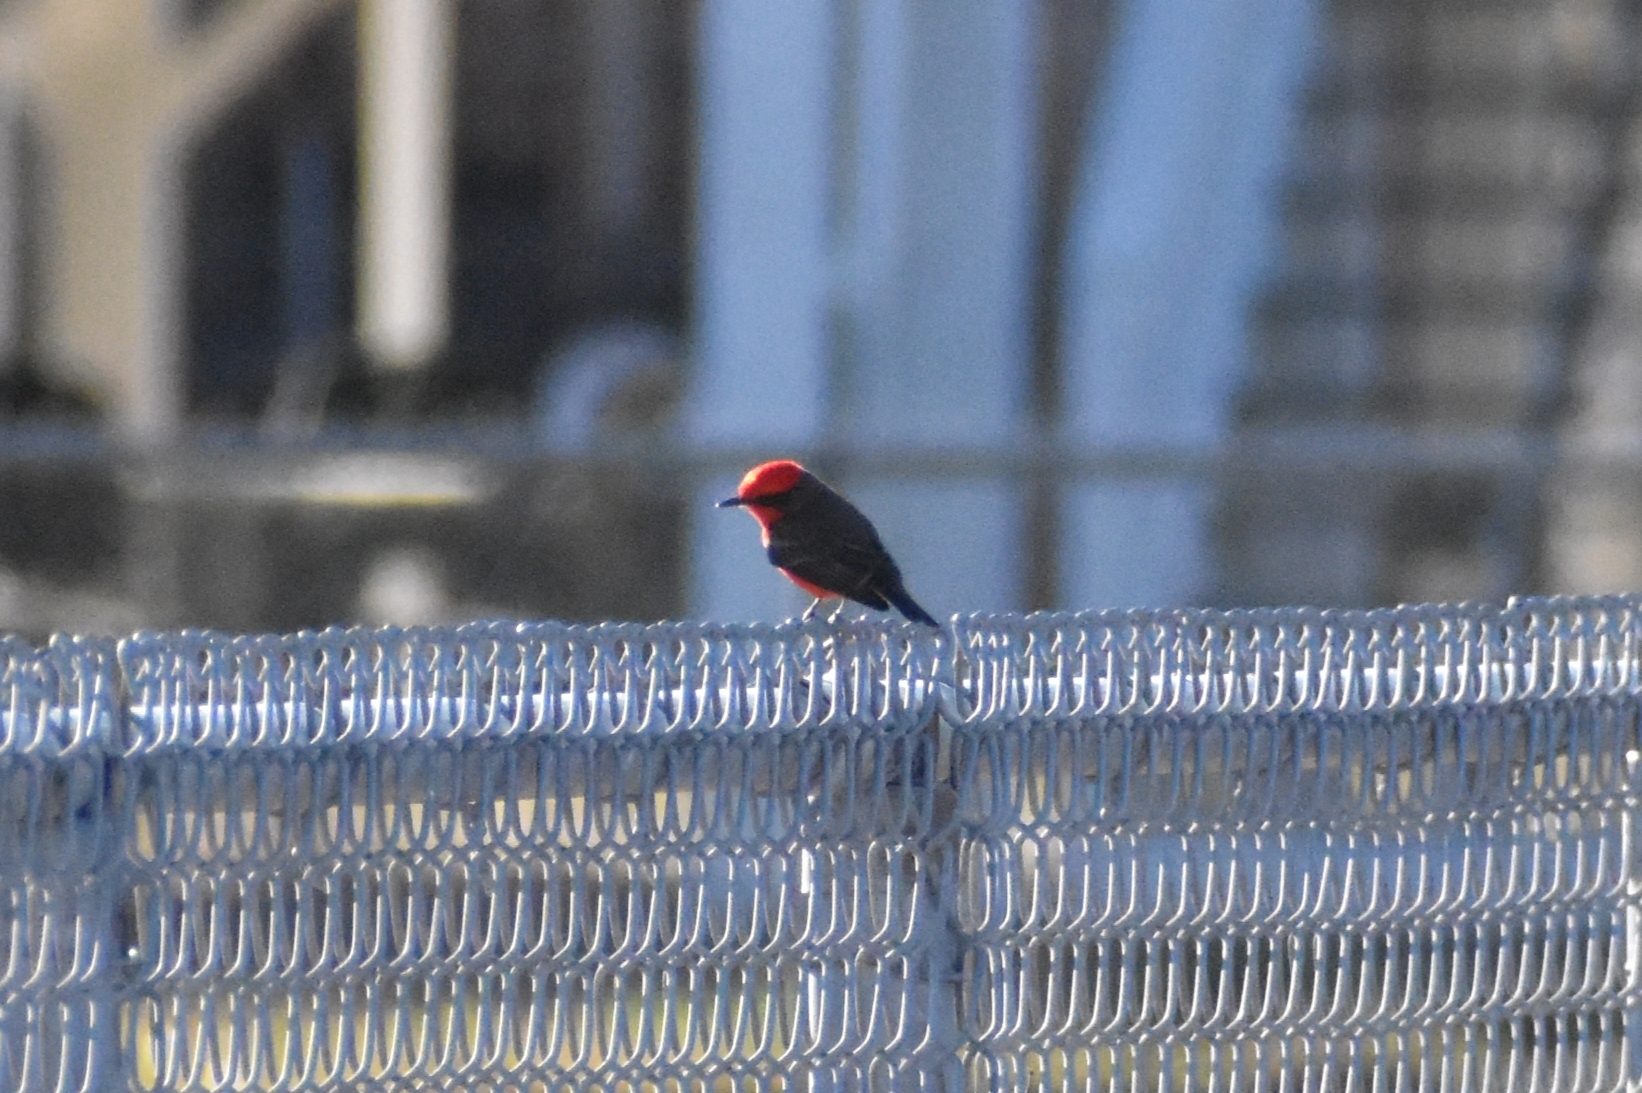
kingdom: Animalia
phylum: Chordata
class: Aves
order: Passeriformes
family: Tyrannidae
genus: Pyrocephalus
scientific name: Pyrocephalus rubinus
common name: Vermilion flycatcher
